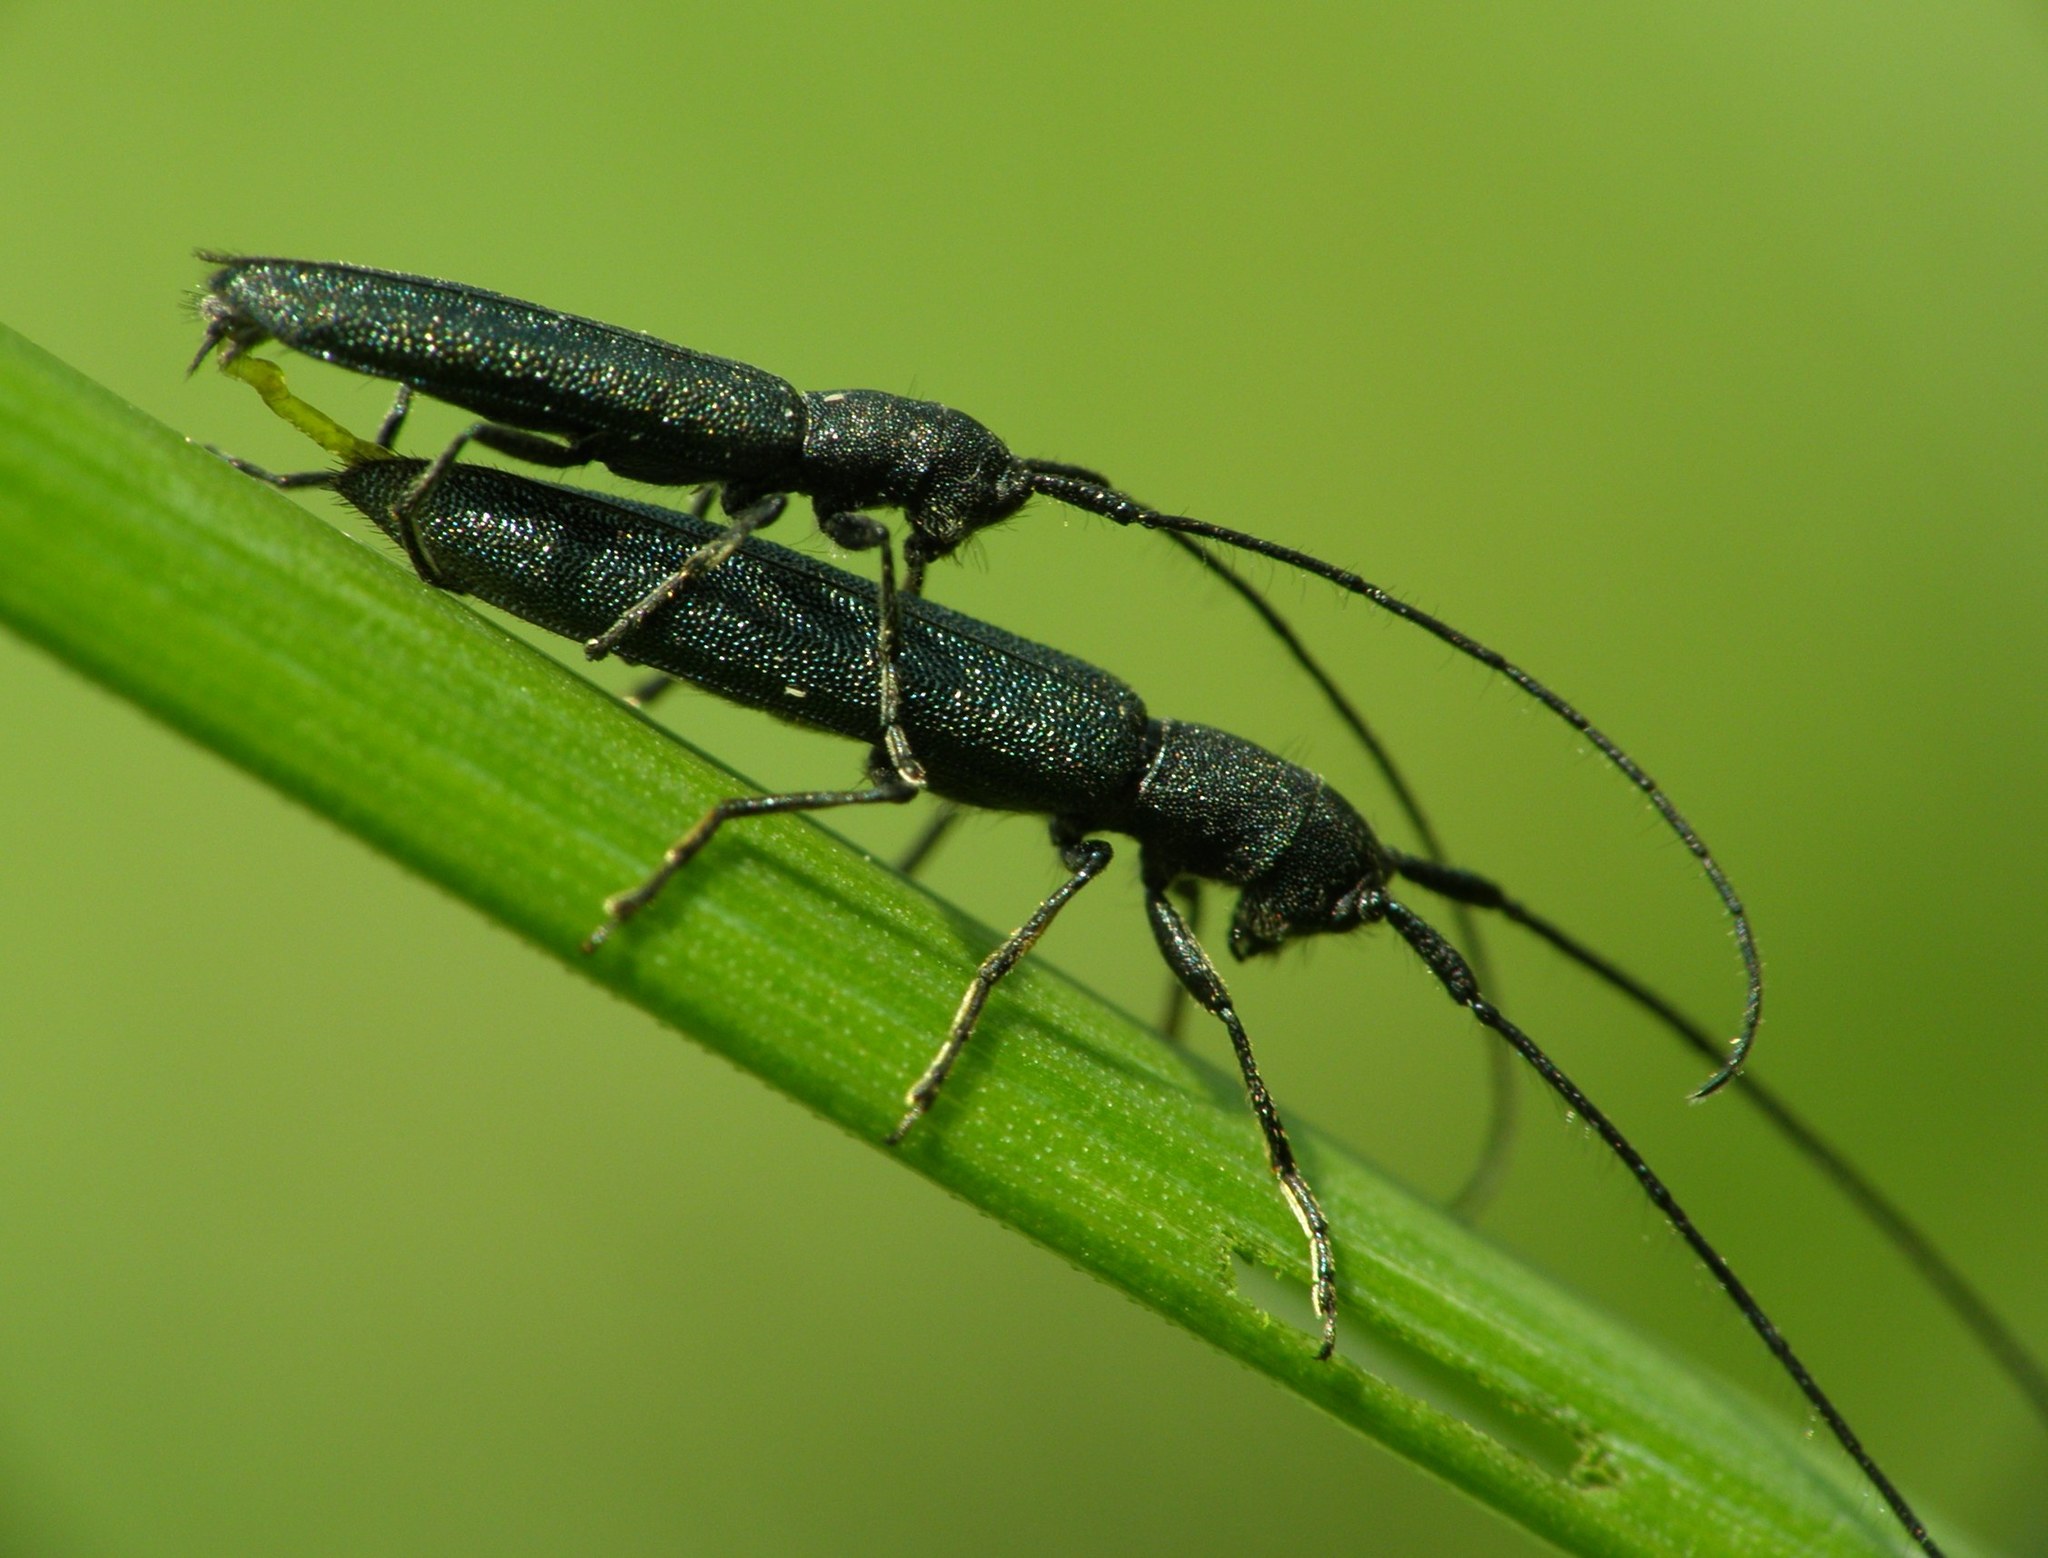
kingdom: Animalia
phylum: Arthropoda
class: Insecta
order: Coleoptera
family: Cerambycidae
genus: Theophilea
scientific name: Theophilea subcylindricollis
